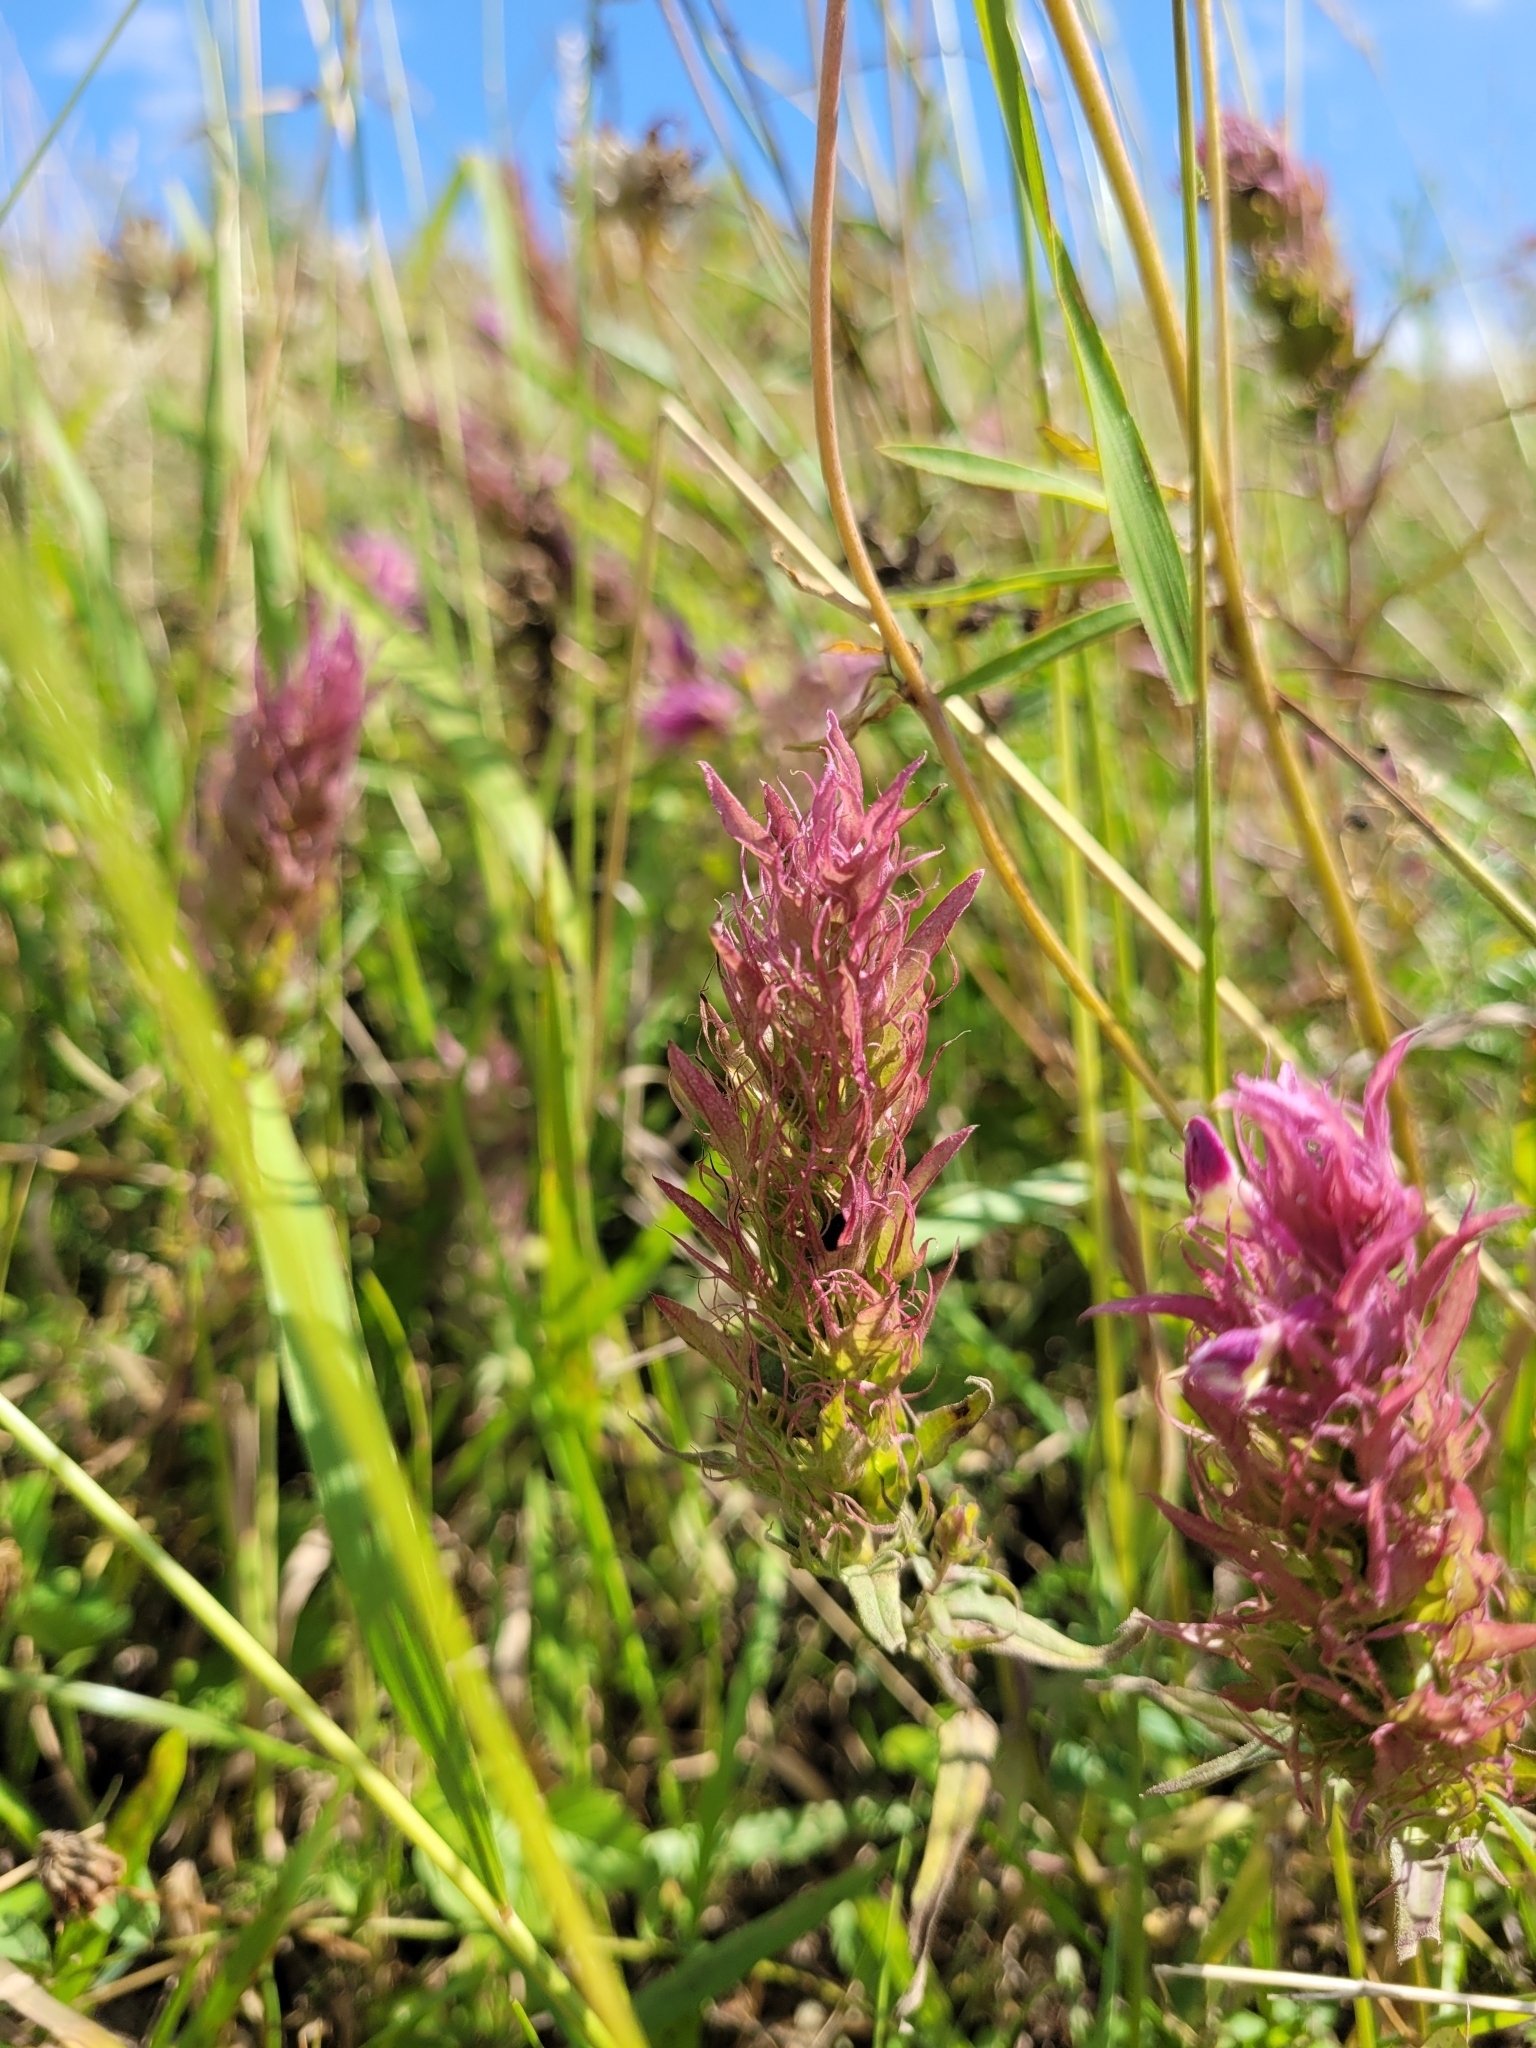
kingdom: Plantae
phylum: Tracheophyta
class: Magnoliopsida
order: Lamiales
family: Orobanchaceae
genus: Melampyrum
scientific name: Melampyrum arvense
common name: Field cow-wheat
